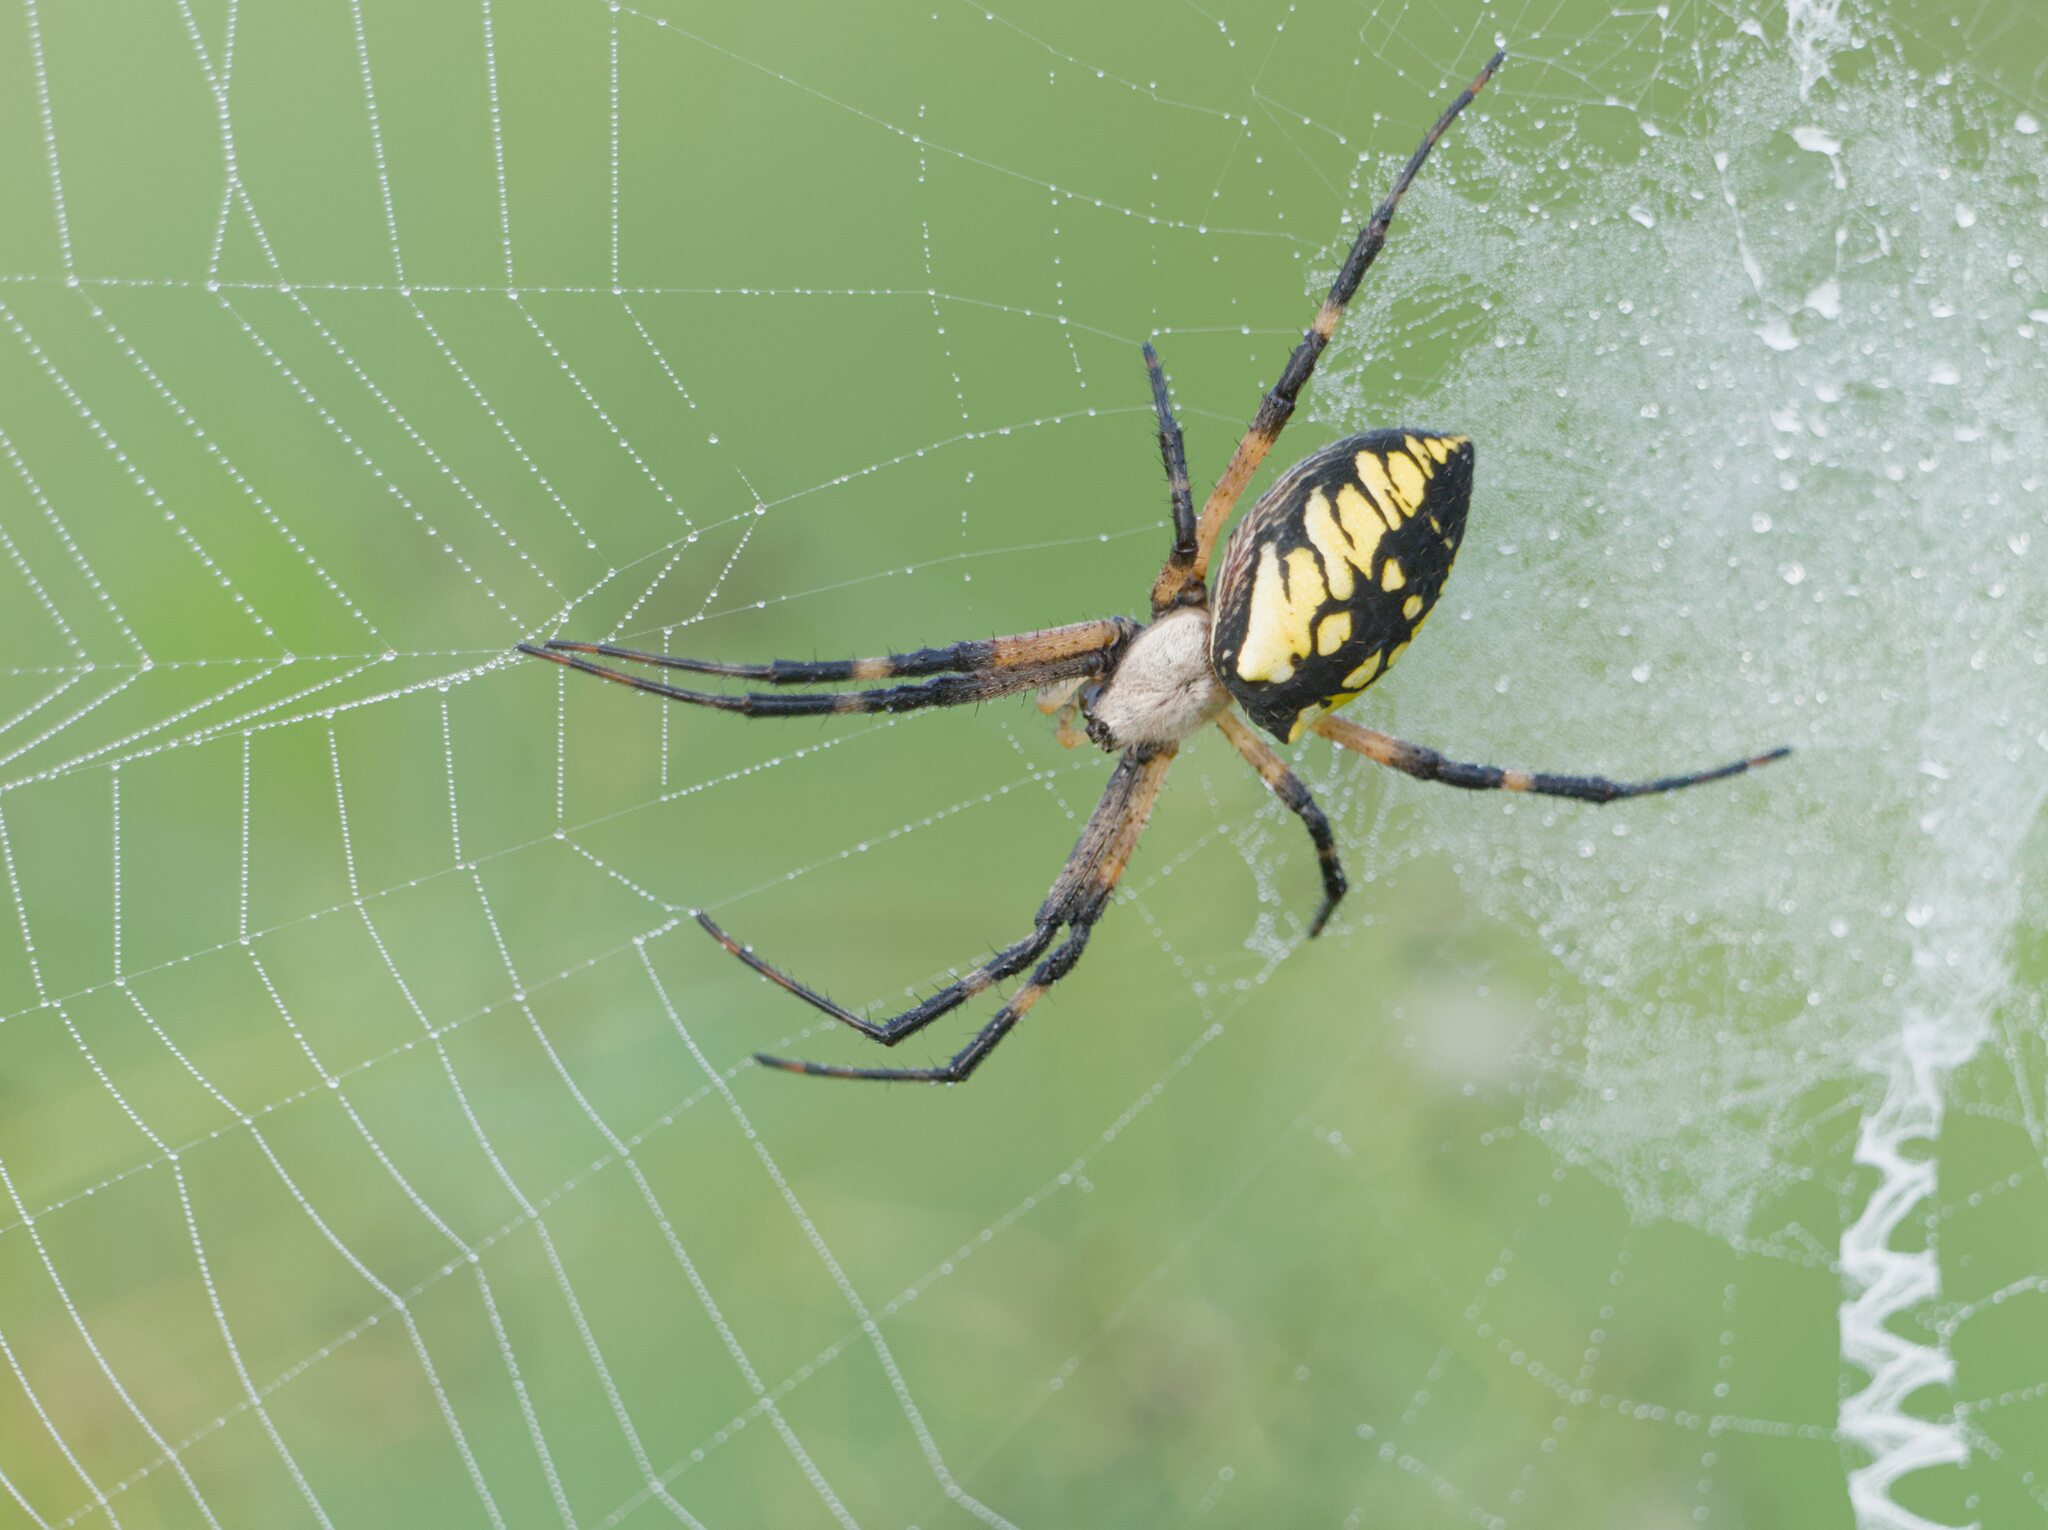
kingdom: Animalia
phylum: Arthropoda
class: Arachnida
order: Araneae
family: Araneidae
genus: Argiope
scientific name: Argiope aurantia
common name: Orb weavers
